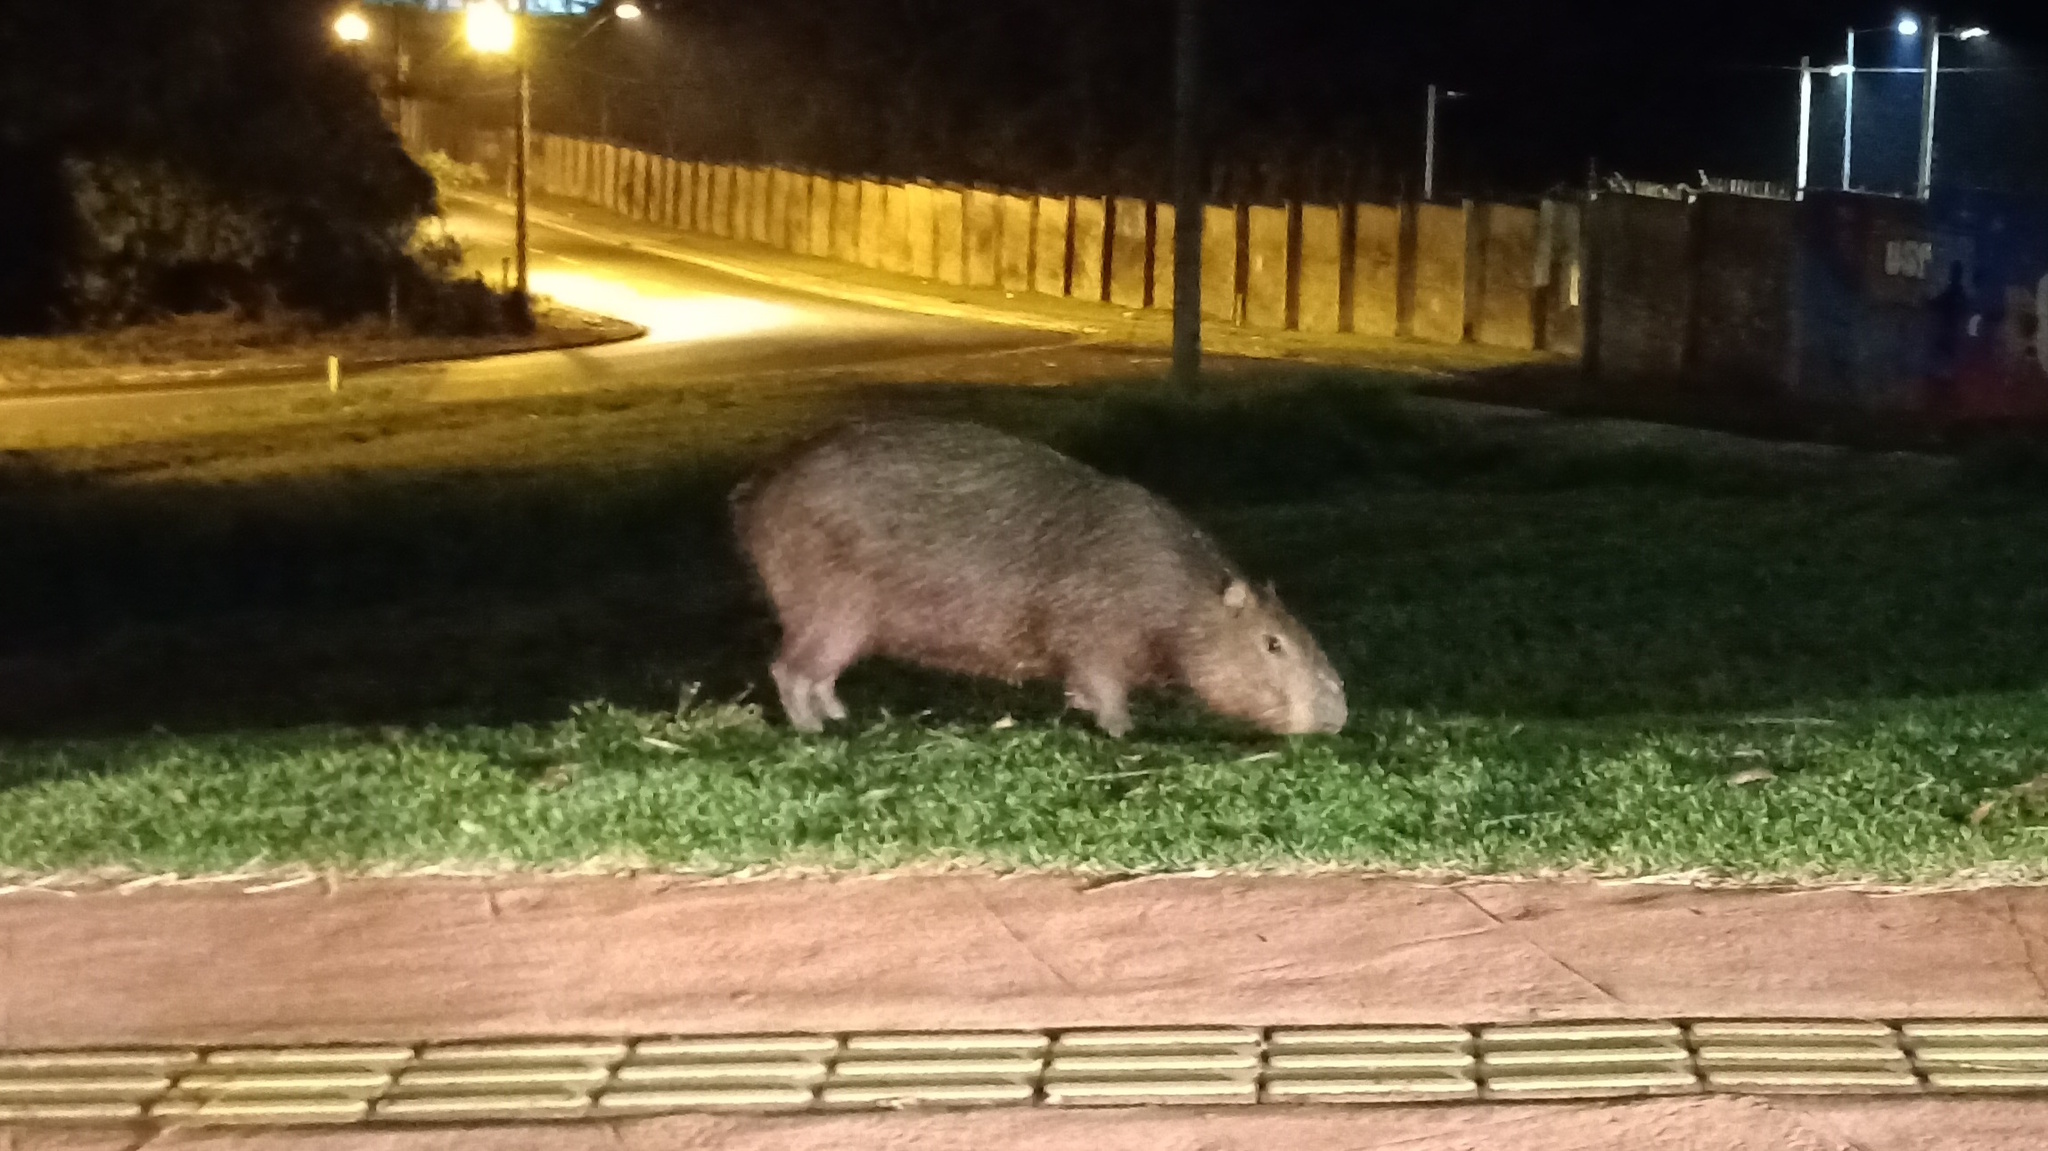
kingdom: Animalia
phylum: Chordata
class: Mammalia
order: Rodentia
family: Caviidae
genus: Hydrochoerus
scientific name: Hydrochoerus hydrochaeris
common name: Capybara
